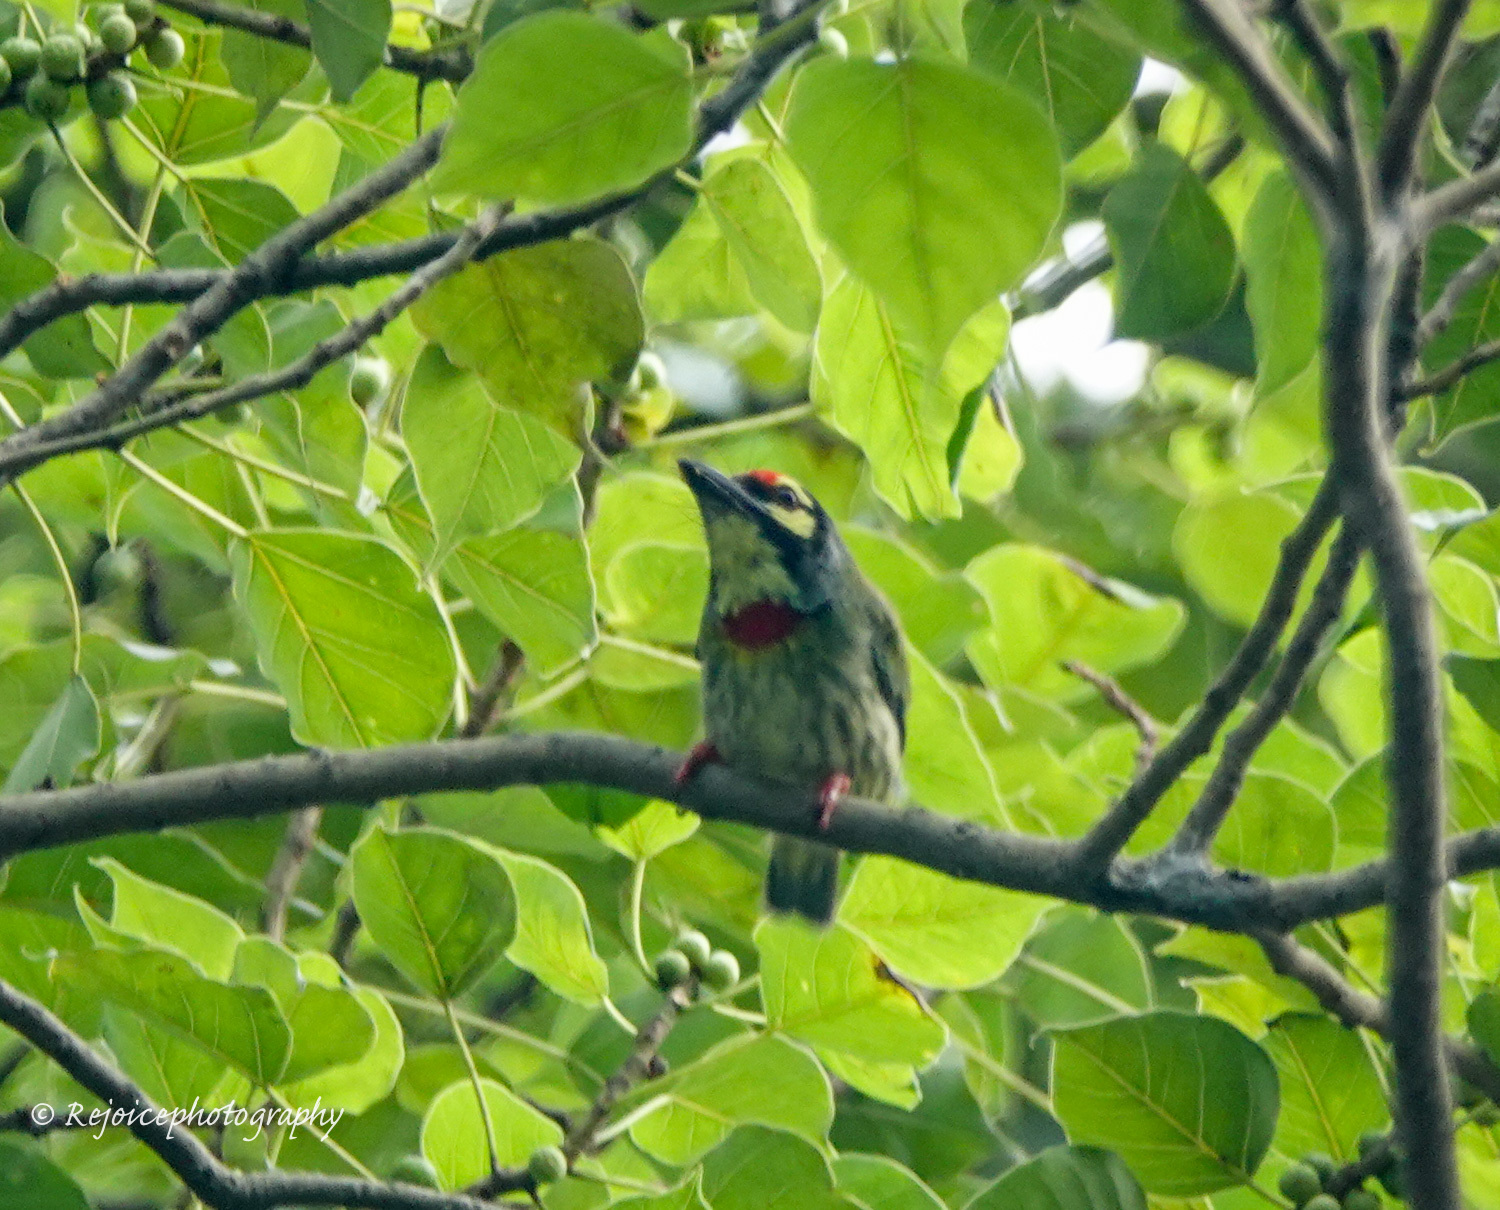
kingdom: Animalia
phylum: Chordata
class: Aves
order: Piciformes
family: Megalaimidae
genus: Psilopogon
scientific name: Psilopogon haemacephalus
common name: Coppersmith barbet
